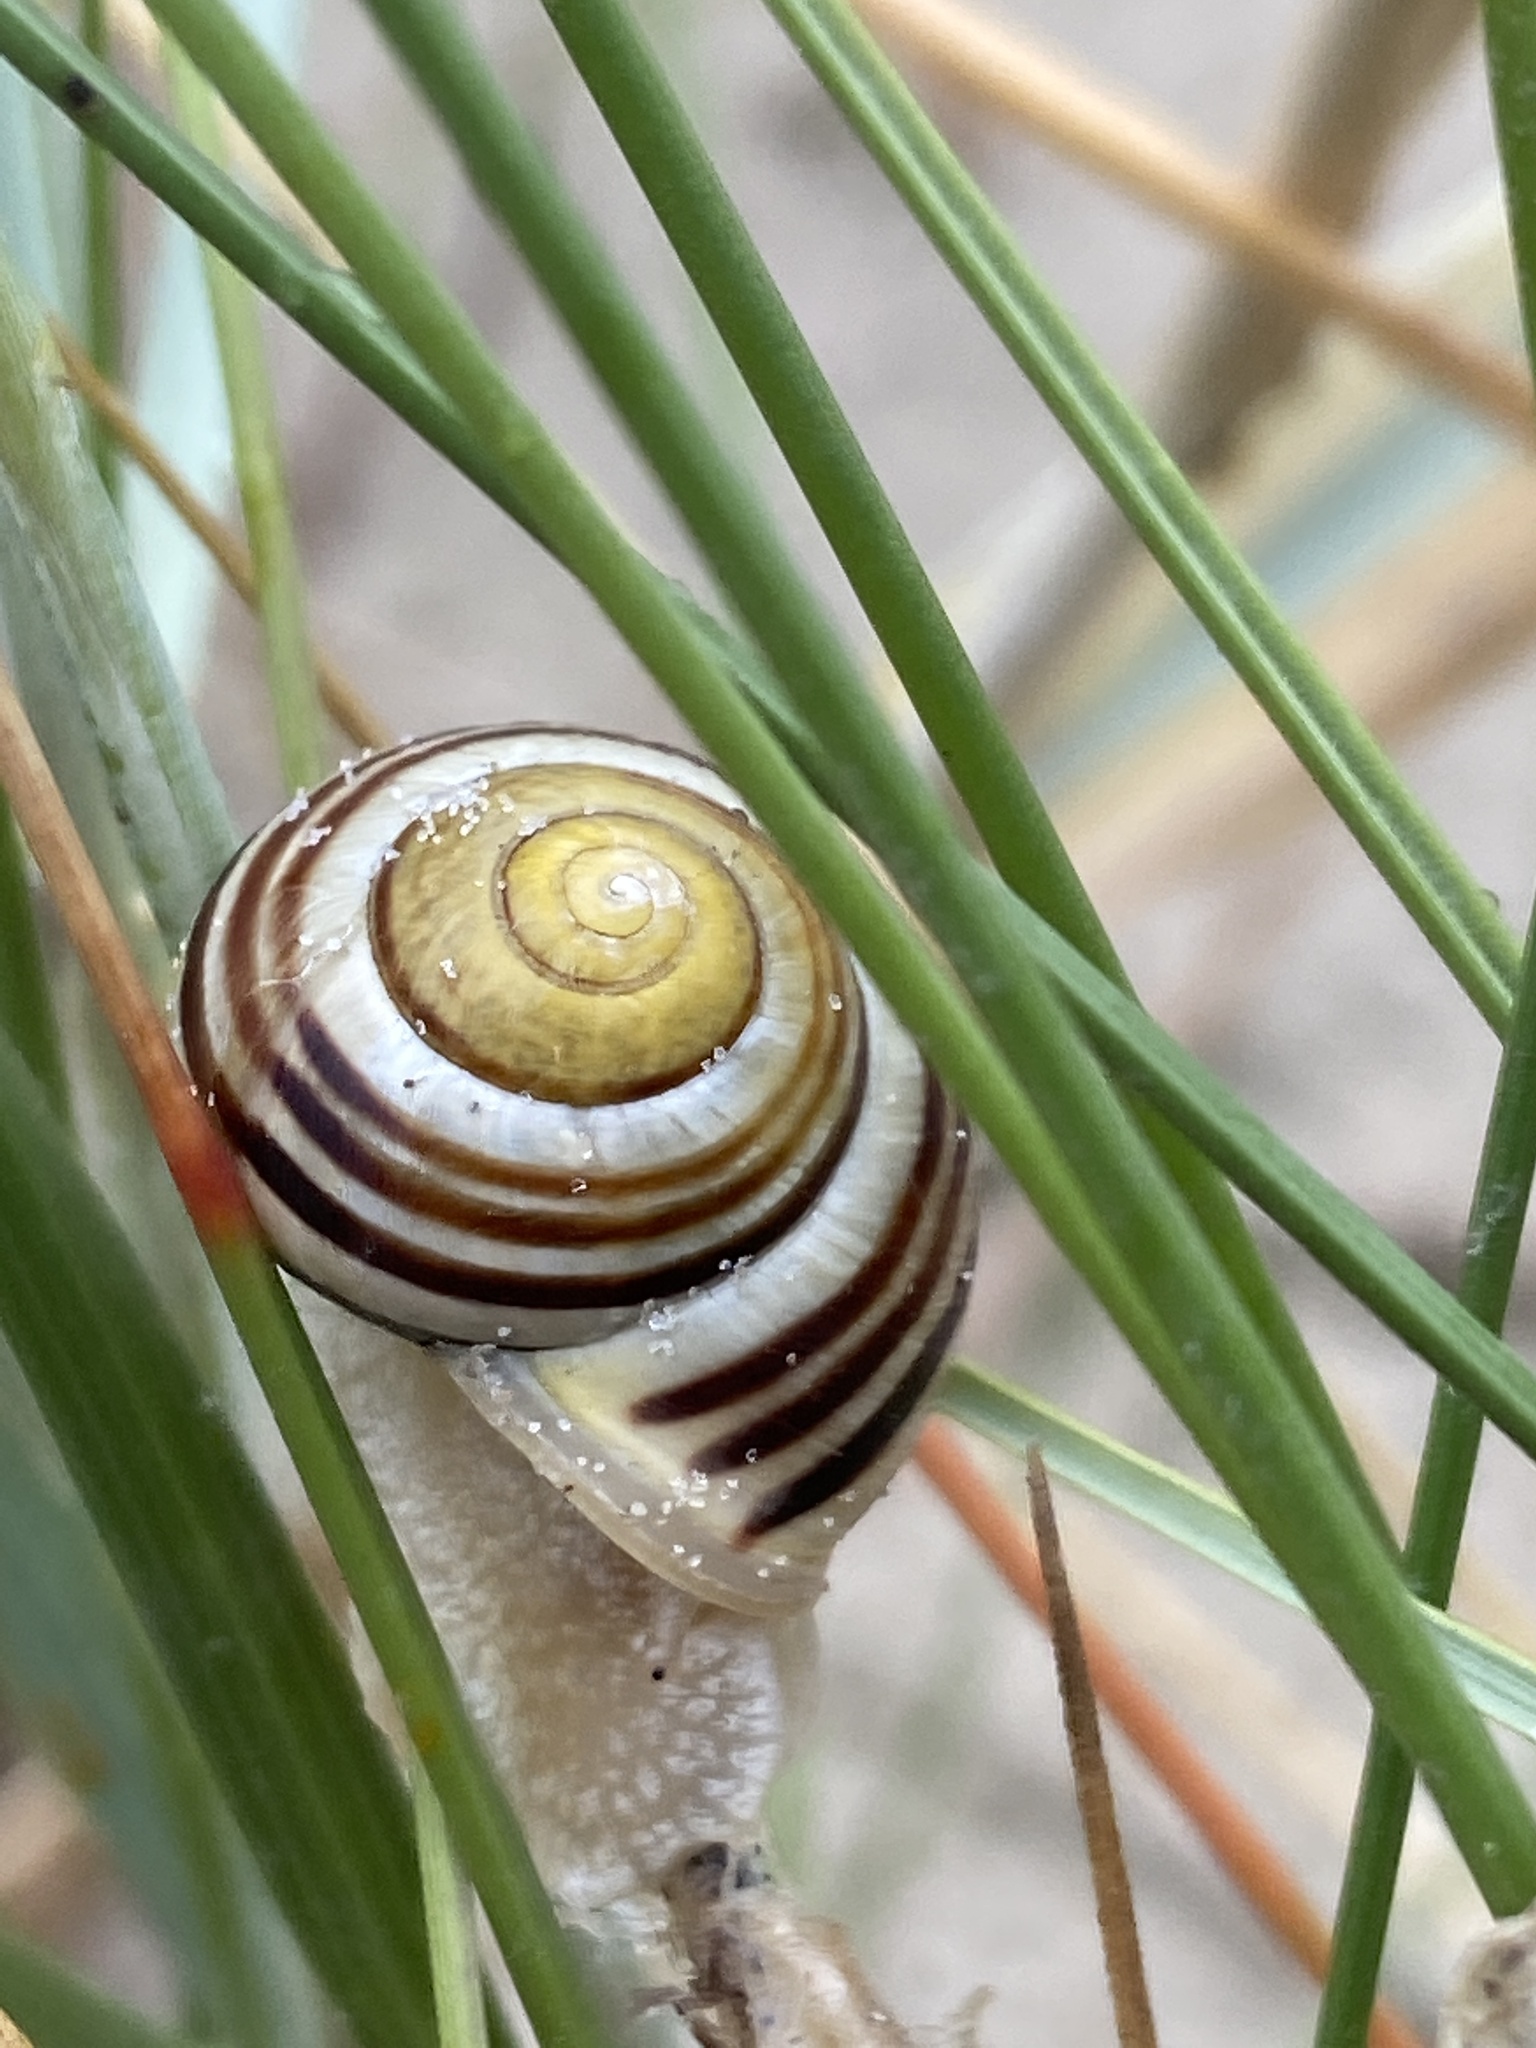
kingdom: Animalia
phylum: Mollusca
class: Gastropoda
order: Stylommatophora
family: Helicidae
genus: Cepaea
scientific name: Cepaea hortensis
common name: White-lip gardensnail
